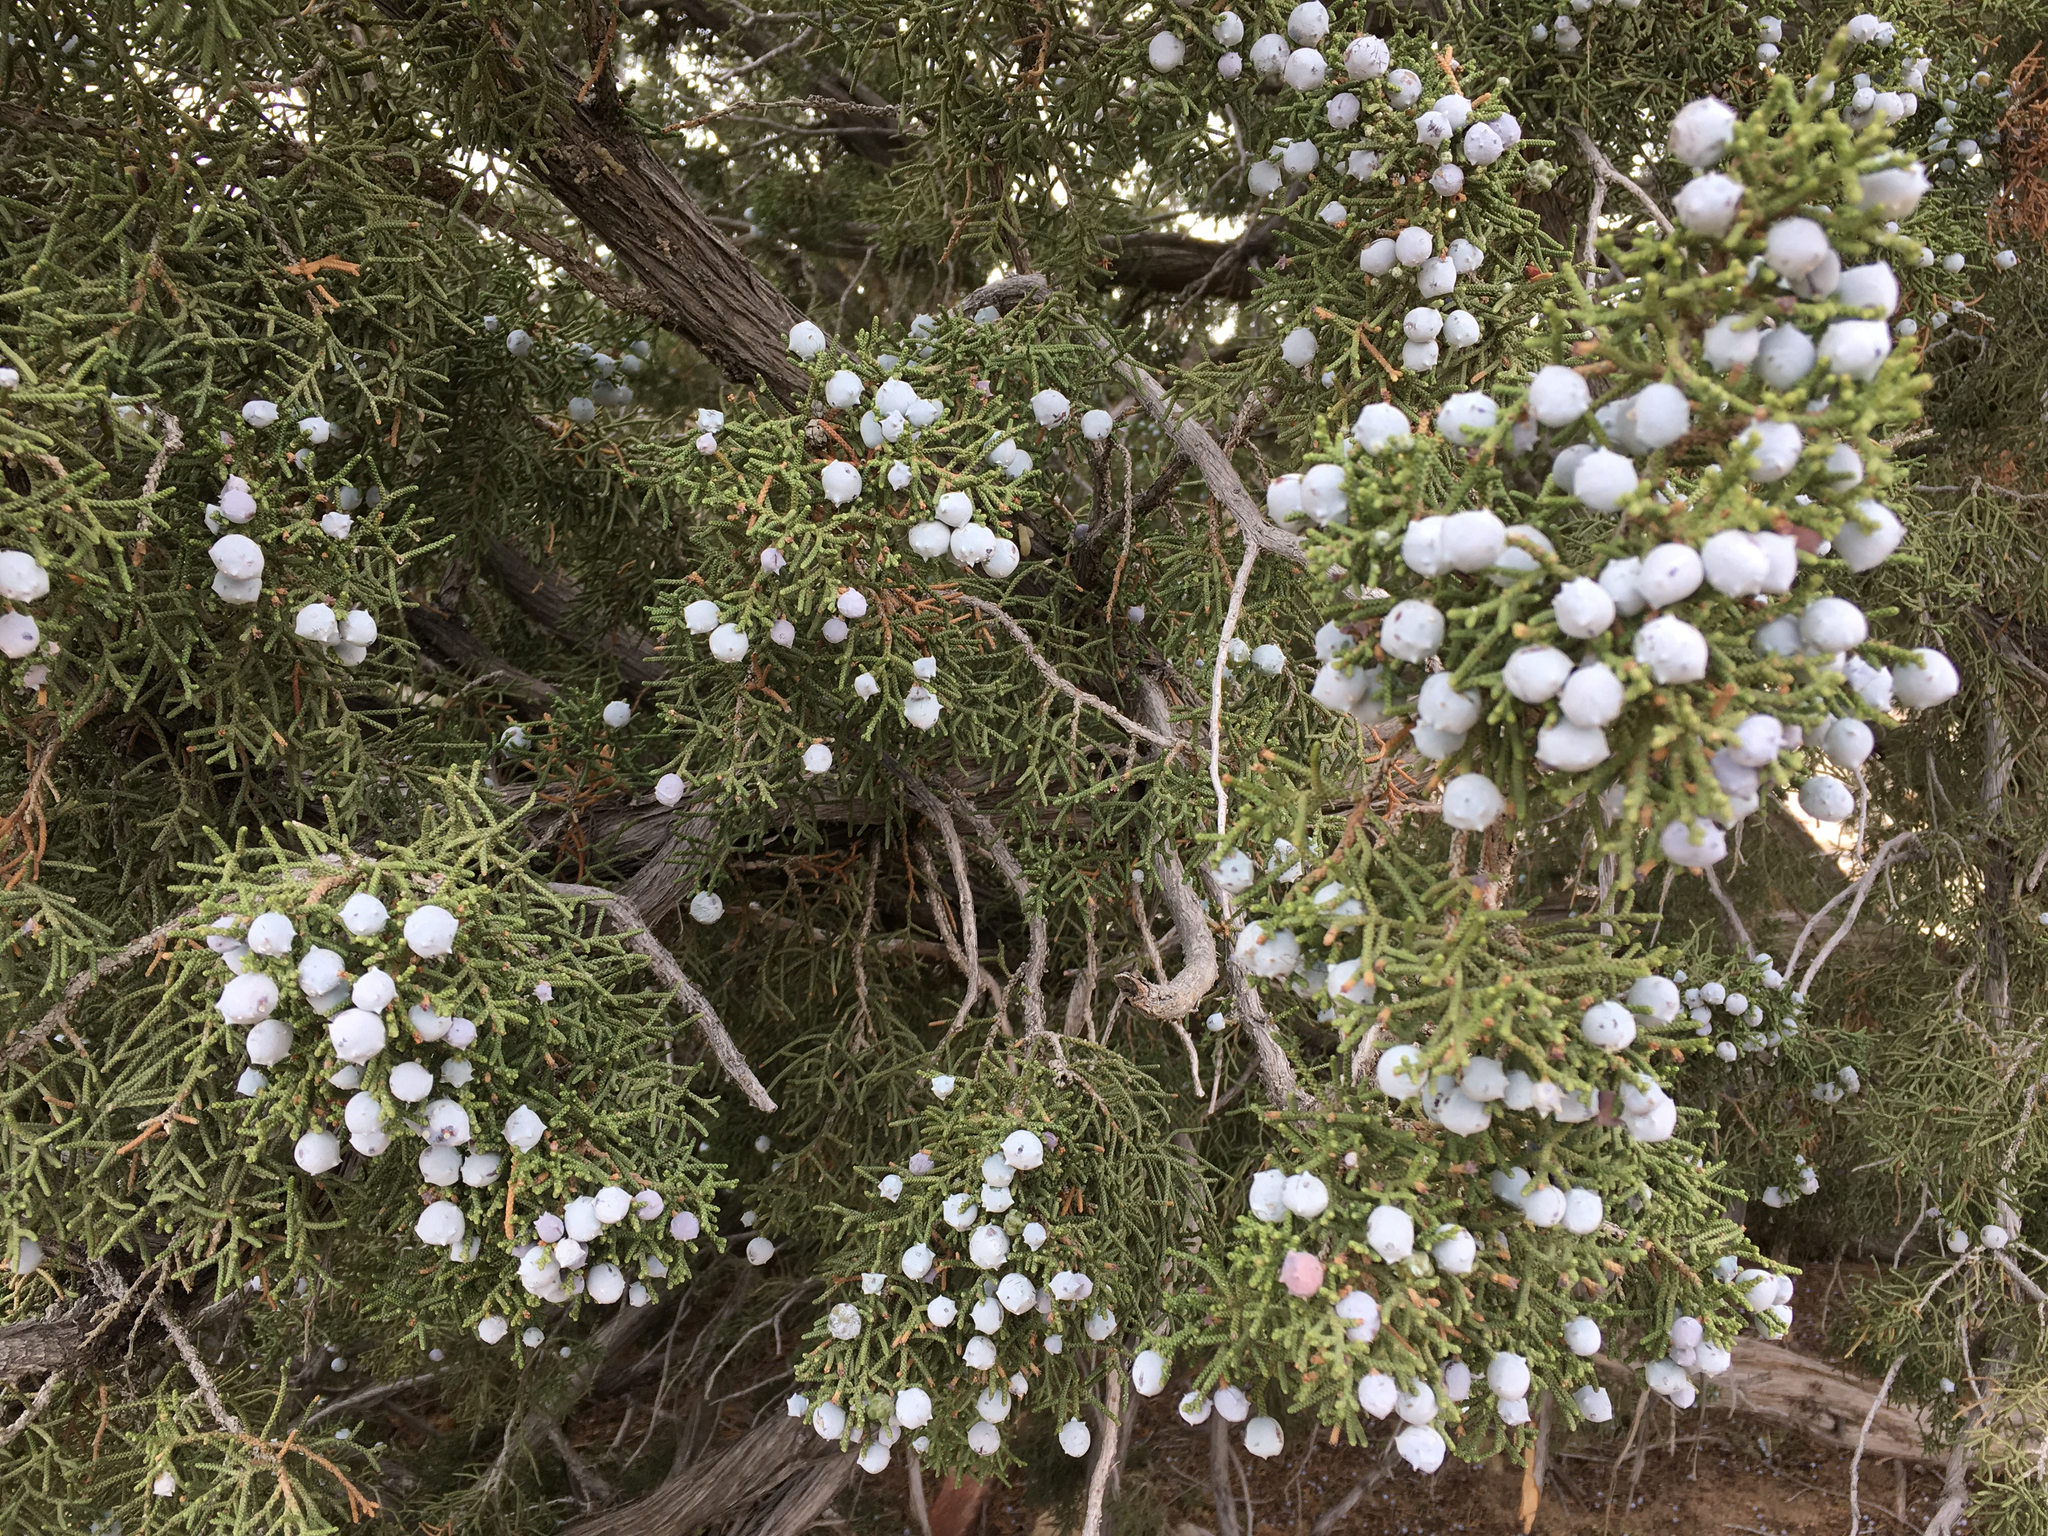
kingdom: Plantae
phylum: Tracheophyta
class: Pinopsida
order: Pinales
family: Cupressaceae
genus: Juniperus
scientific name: Juniperus californica
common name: California juniper
